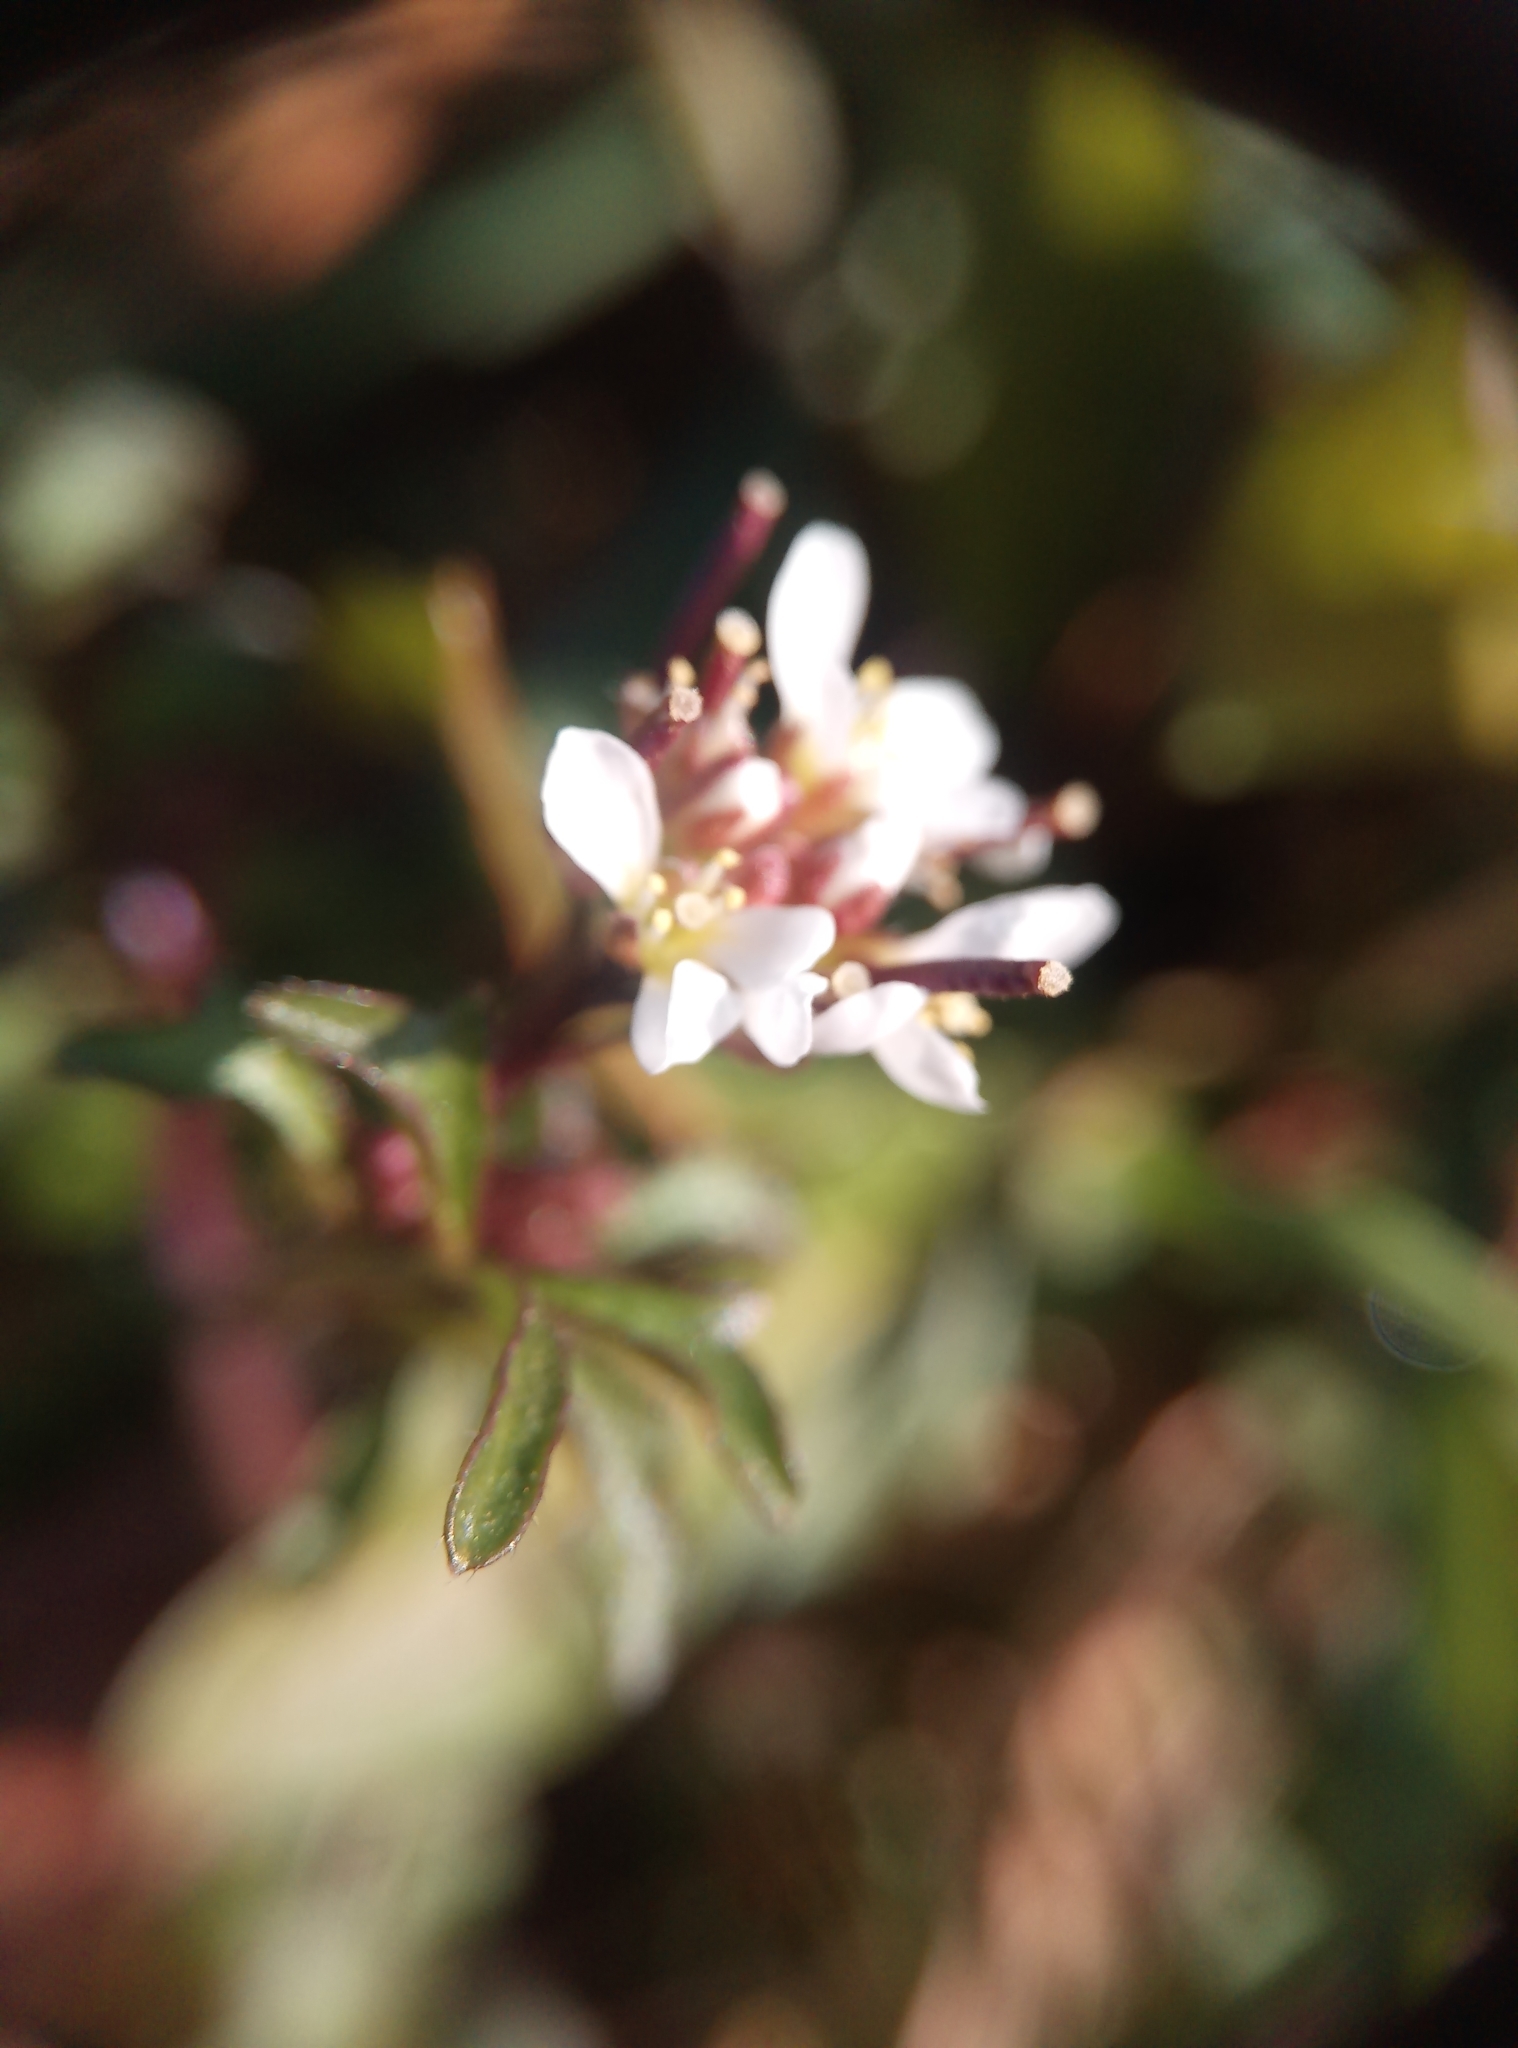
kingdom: Plantae
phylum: Tracheophyta
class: Magnoliopsida
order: Brassicales
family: Brassicaceae
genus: Cardamine
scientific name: Cardamine hirsuta
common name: Hairy bittercress
